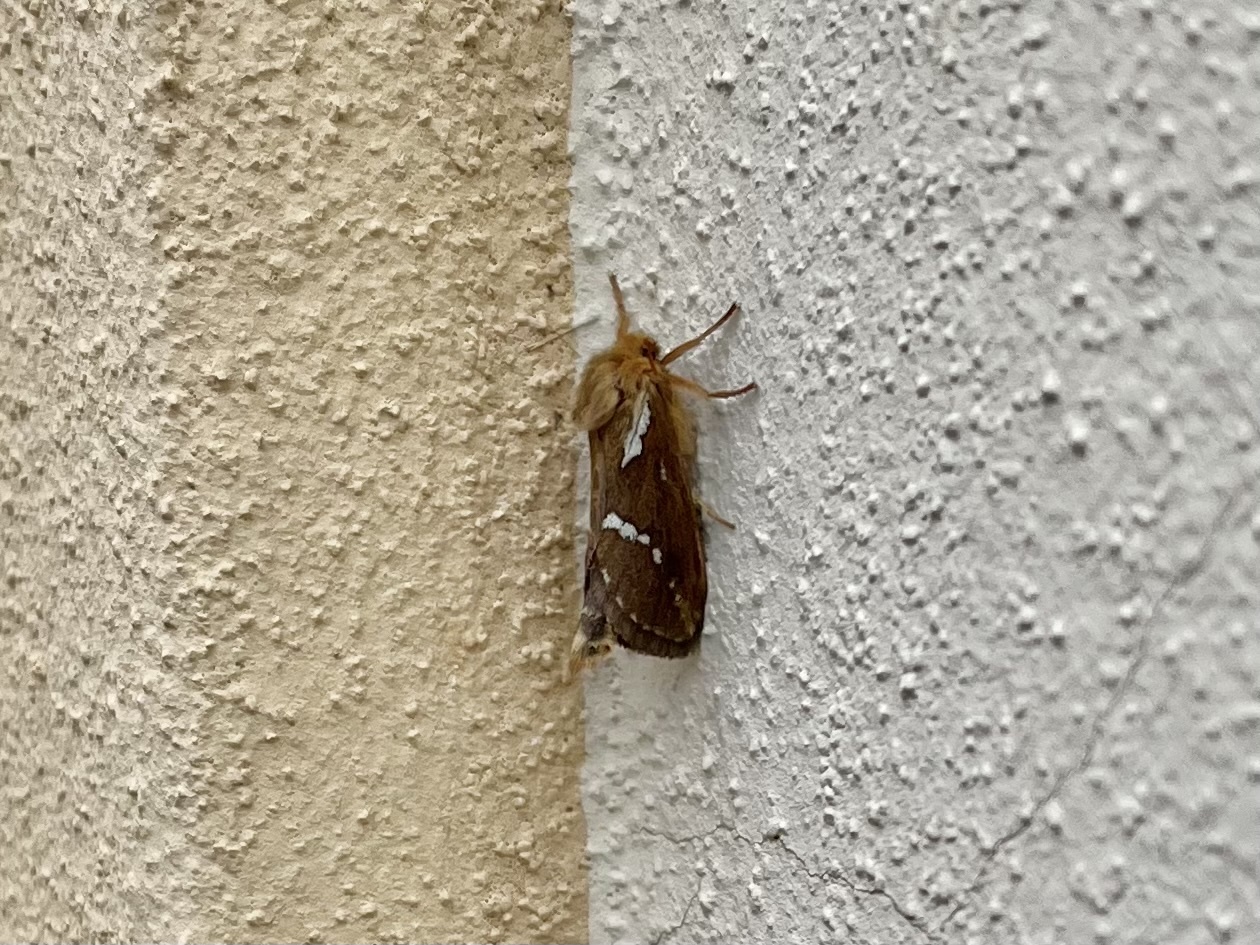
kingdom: Animalia
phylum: Arthropoda
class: Insecta
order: Lepidoptera
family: Hepialidae
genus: Korscheltellus
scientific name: Korscheltellus lupulina
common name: Common swift
